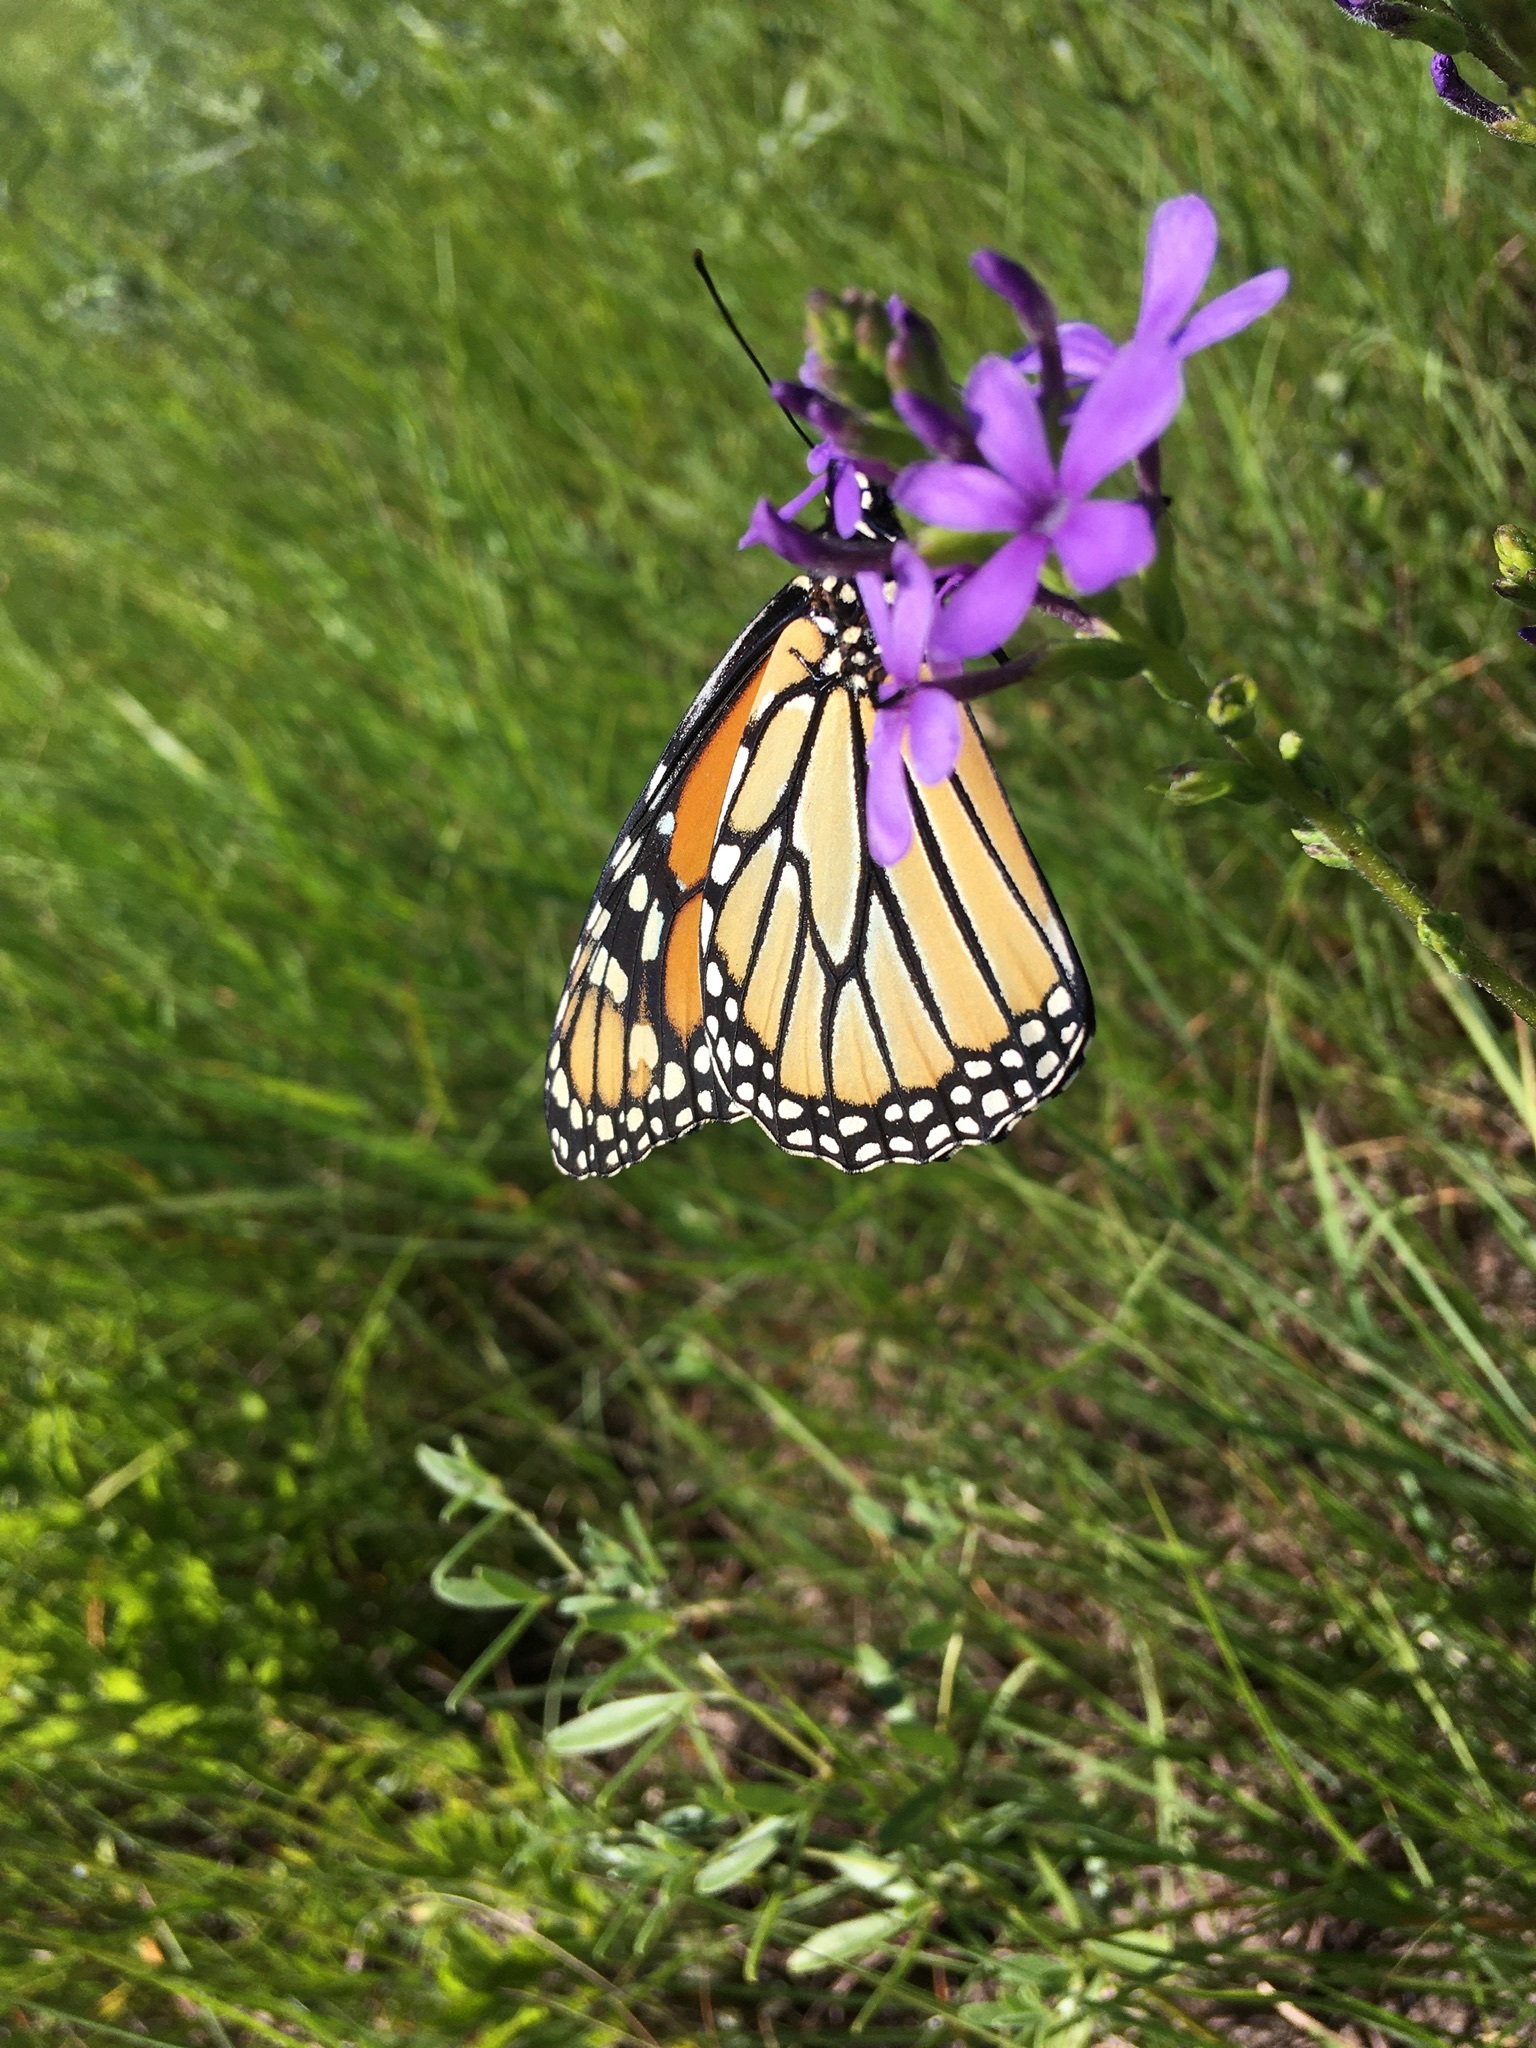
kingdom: Animalia
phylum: Arthropoda
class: Insecta
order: Lepidoptera
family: Nymphalidae
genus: Danaus
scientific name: Danaus plexippus
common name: Monarch
